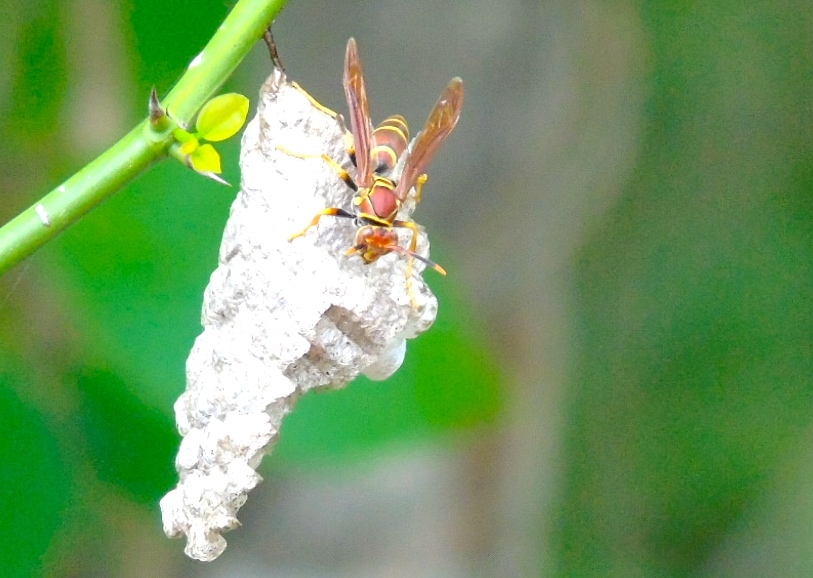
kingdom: Animalia
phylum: Arthropoda
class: Insecta
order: Hymenoptera
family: Eumenidae
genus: Polistes
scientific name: Polistes instabilis
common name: Unstable paper wasp
